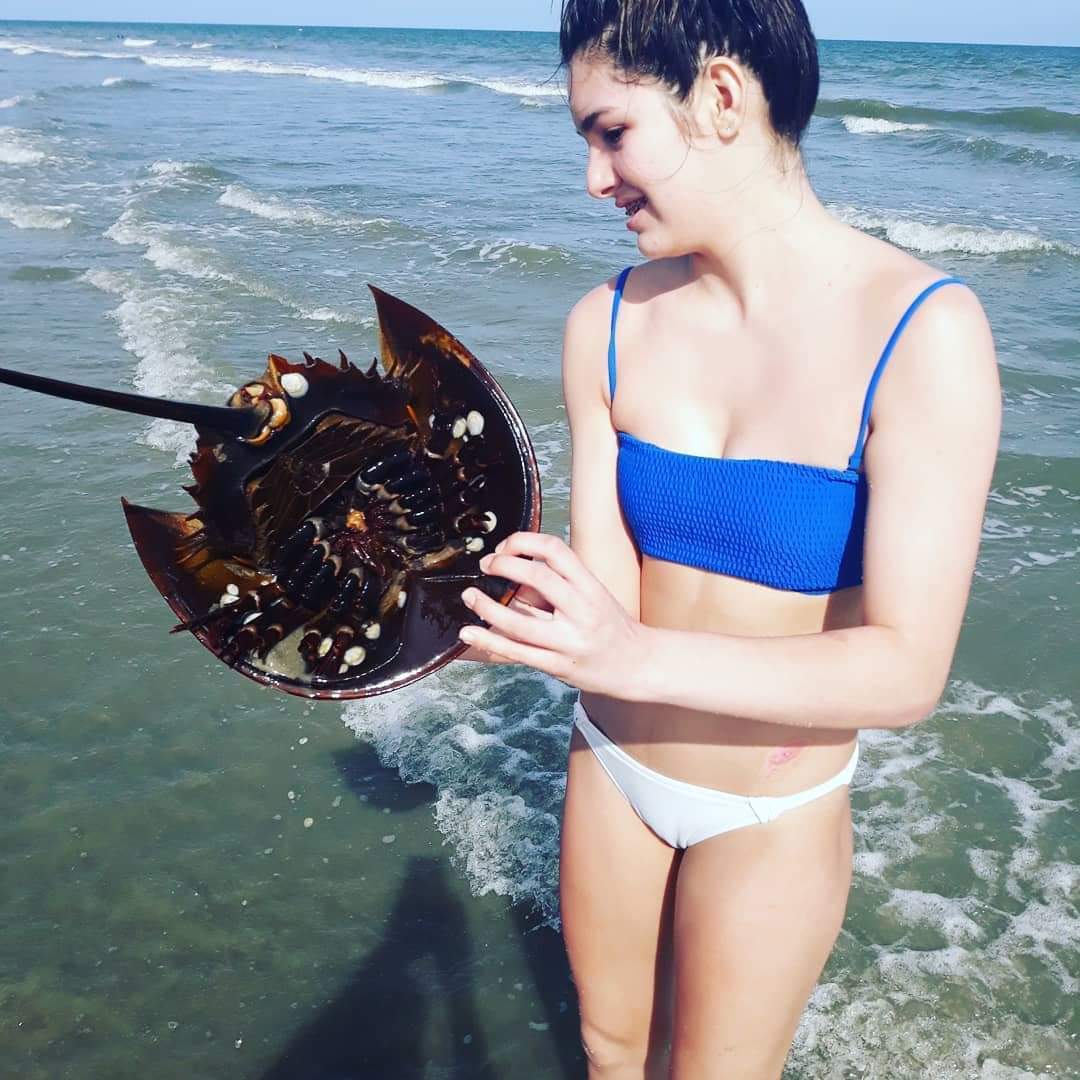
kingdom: Animalia
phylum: Arthropoda
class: Merostomata
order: Xiphosurida
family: Limulidae
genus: Limulus
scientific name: Limulus polyphemus
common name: Horseshoe crab
